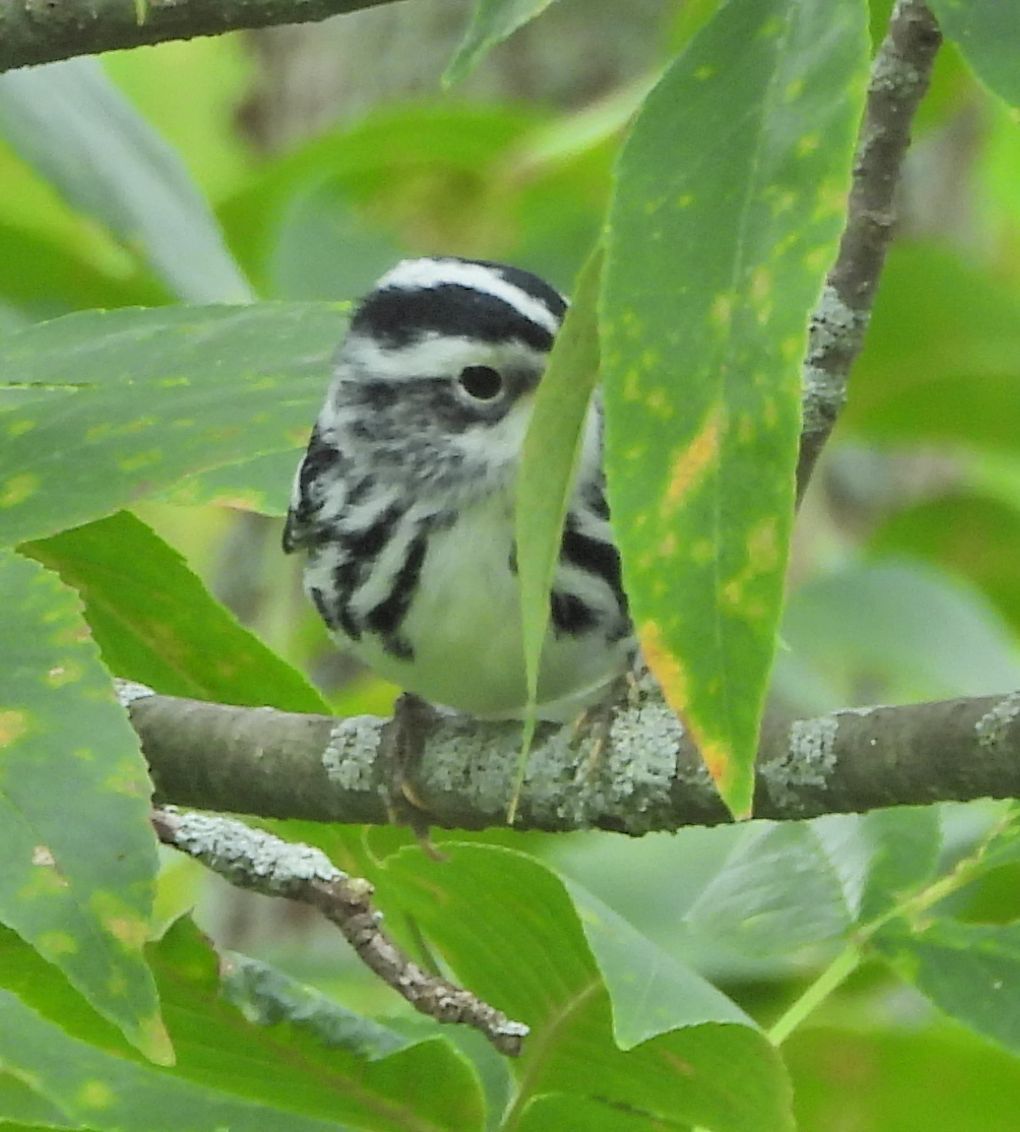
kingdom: Animalia
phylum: Chordata
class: Aves
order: Passeriformes
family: Parulidae
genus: Mniotilta
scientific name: Mniotilta varia
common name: Black-and-white warbler
